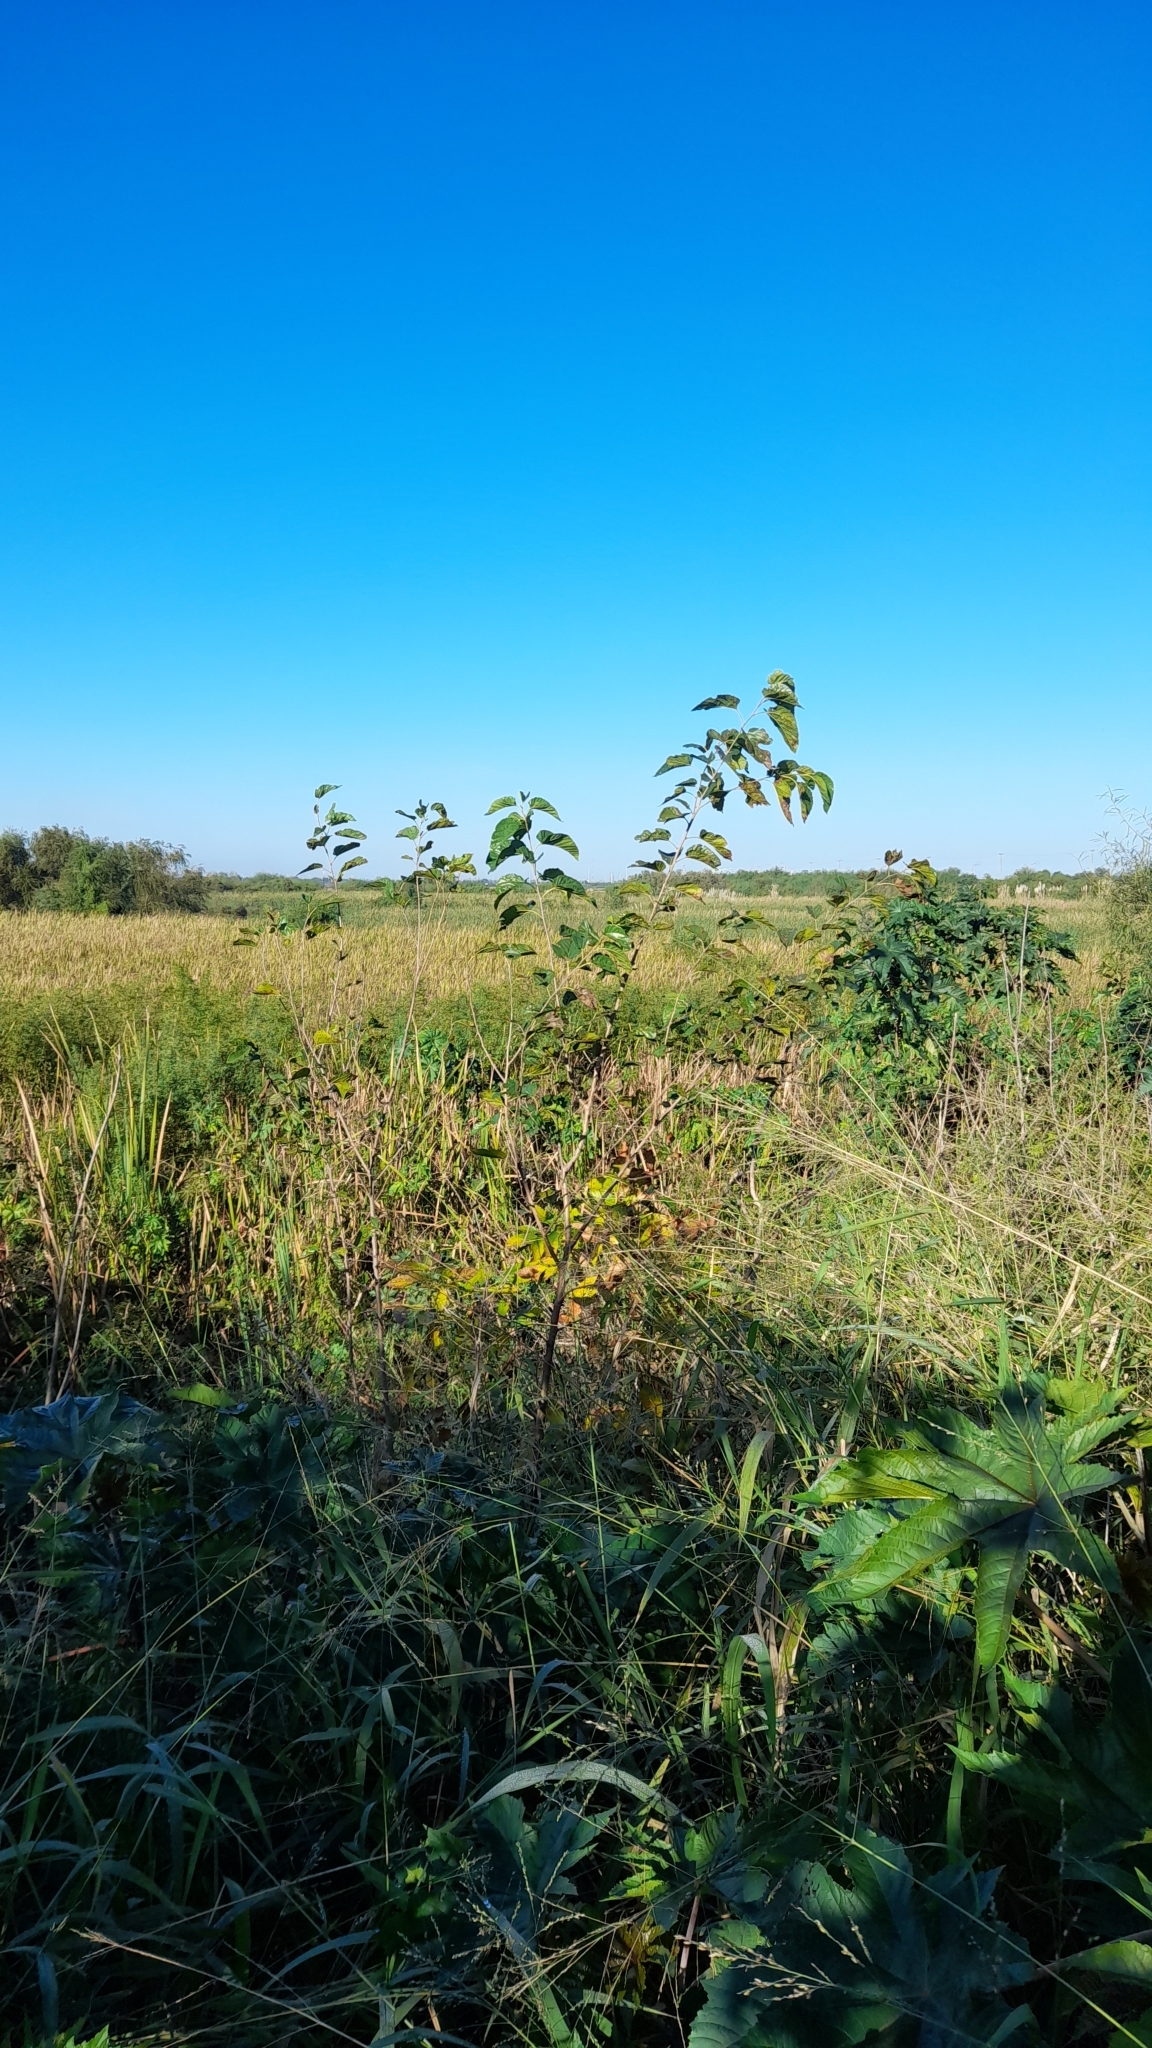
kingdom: Plantae
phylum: Tracheophyta
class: Magnoliopsida
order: Rosales
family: Moraceae
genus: Morus
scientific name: Morus alba
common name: White mulberry
